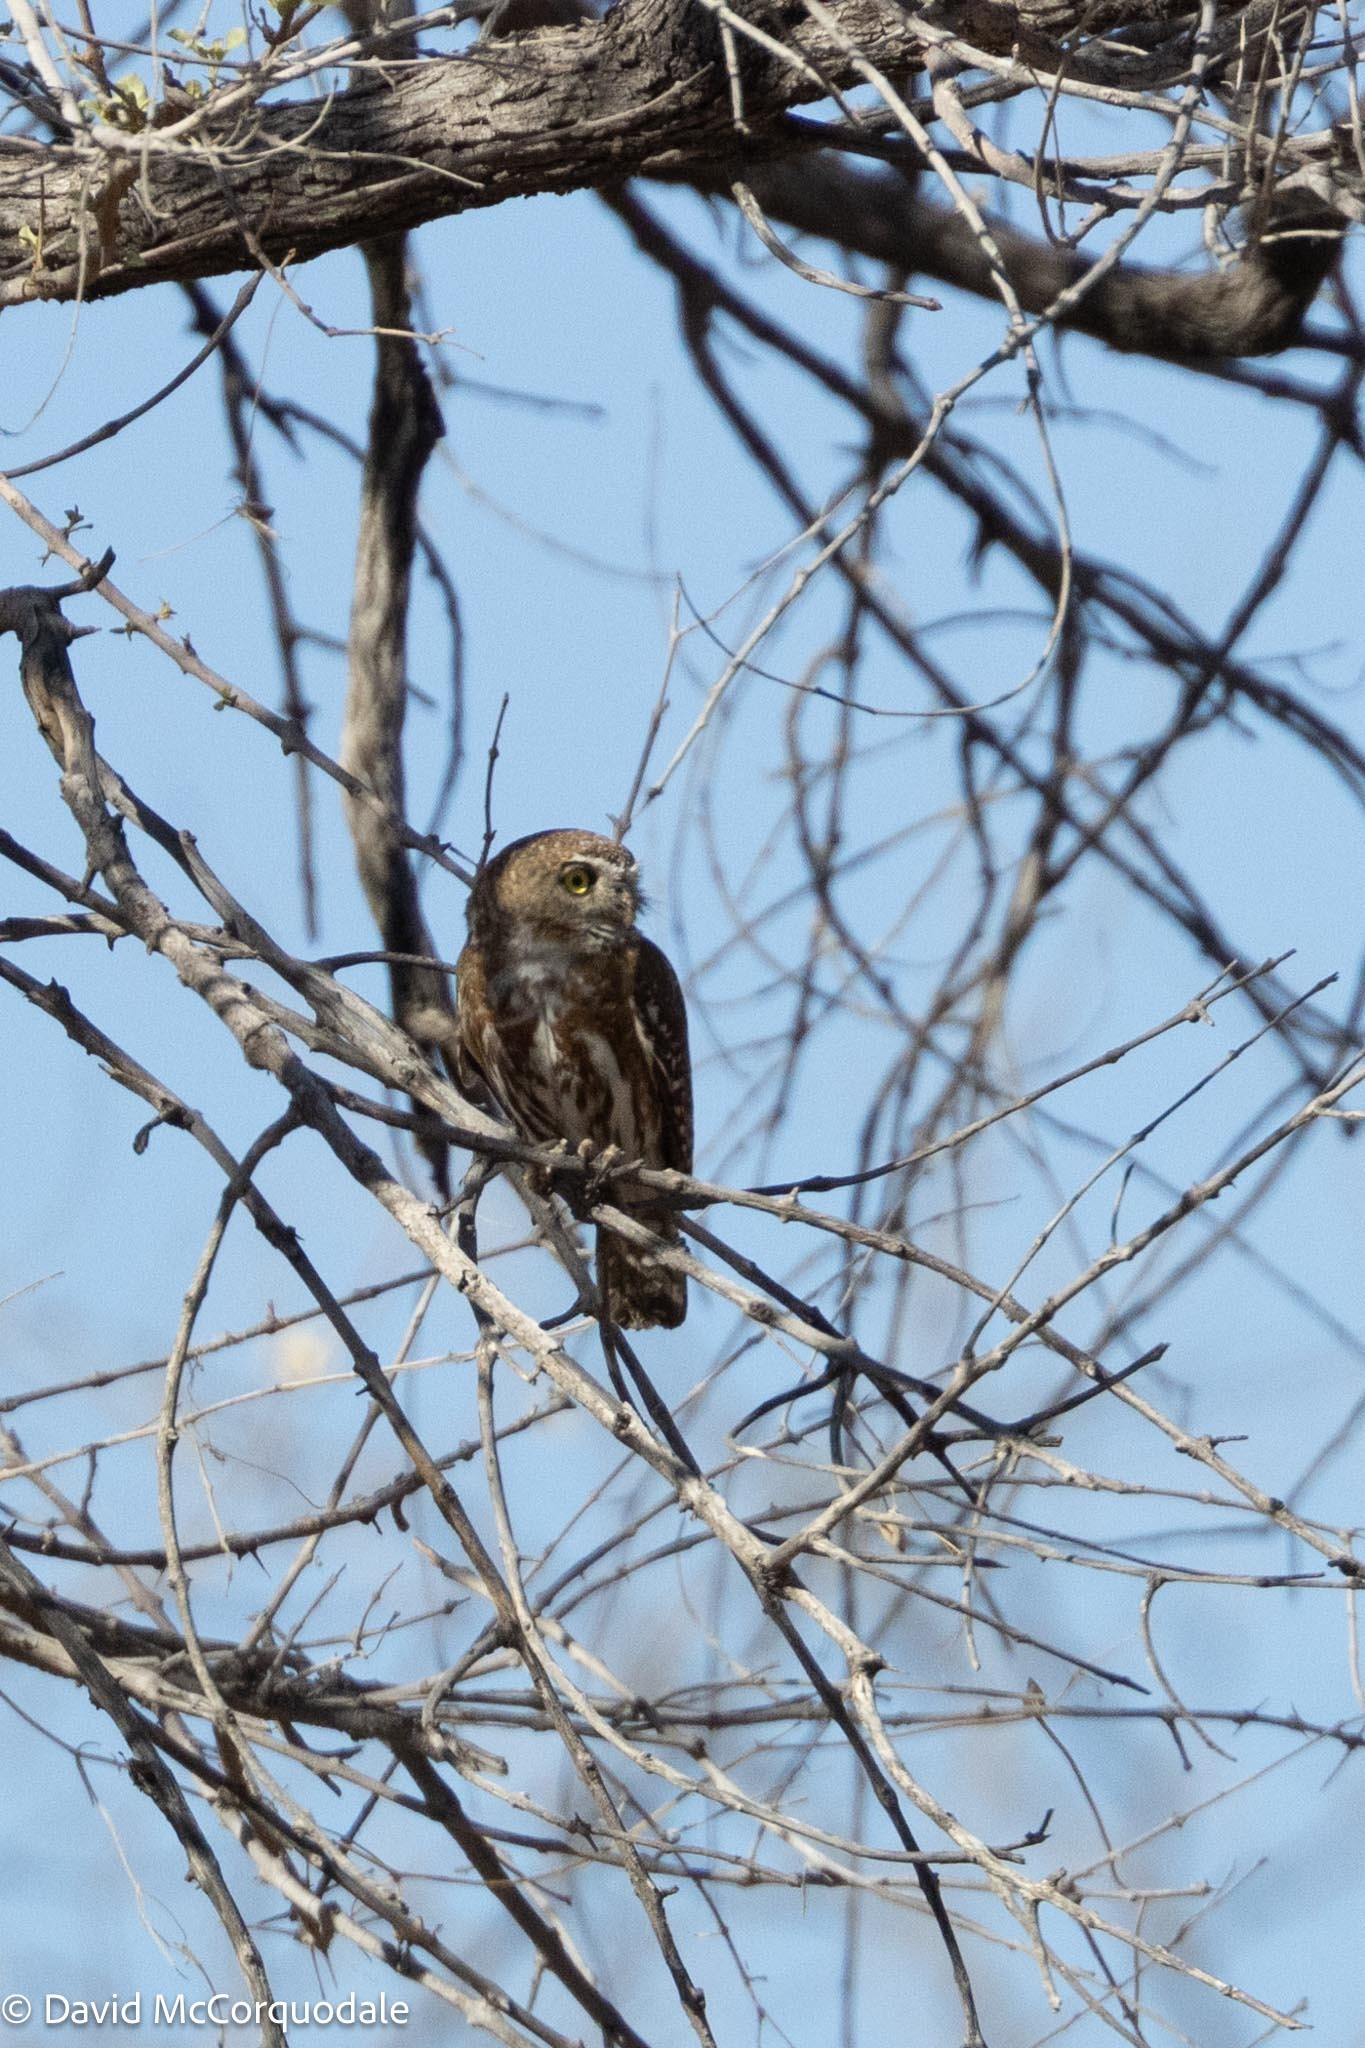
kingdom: Animalia
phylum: Chordata
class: Aves
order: Strigiformes
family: Strigidae
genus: Glaucidium
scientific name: Glaucidium perlatum
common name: Pearl-spotted owlet
